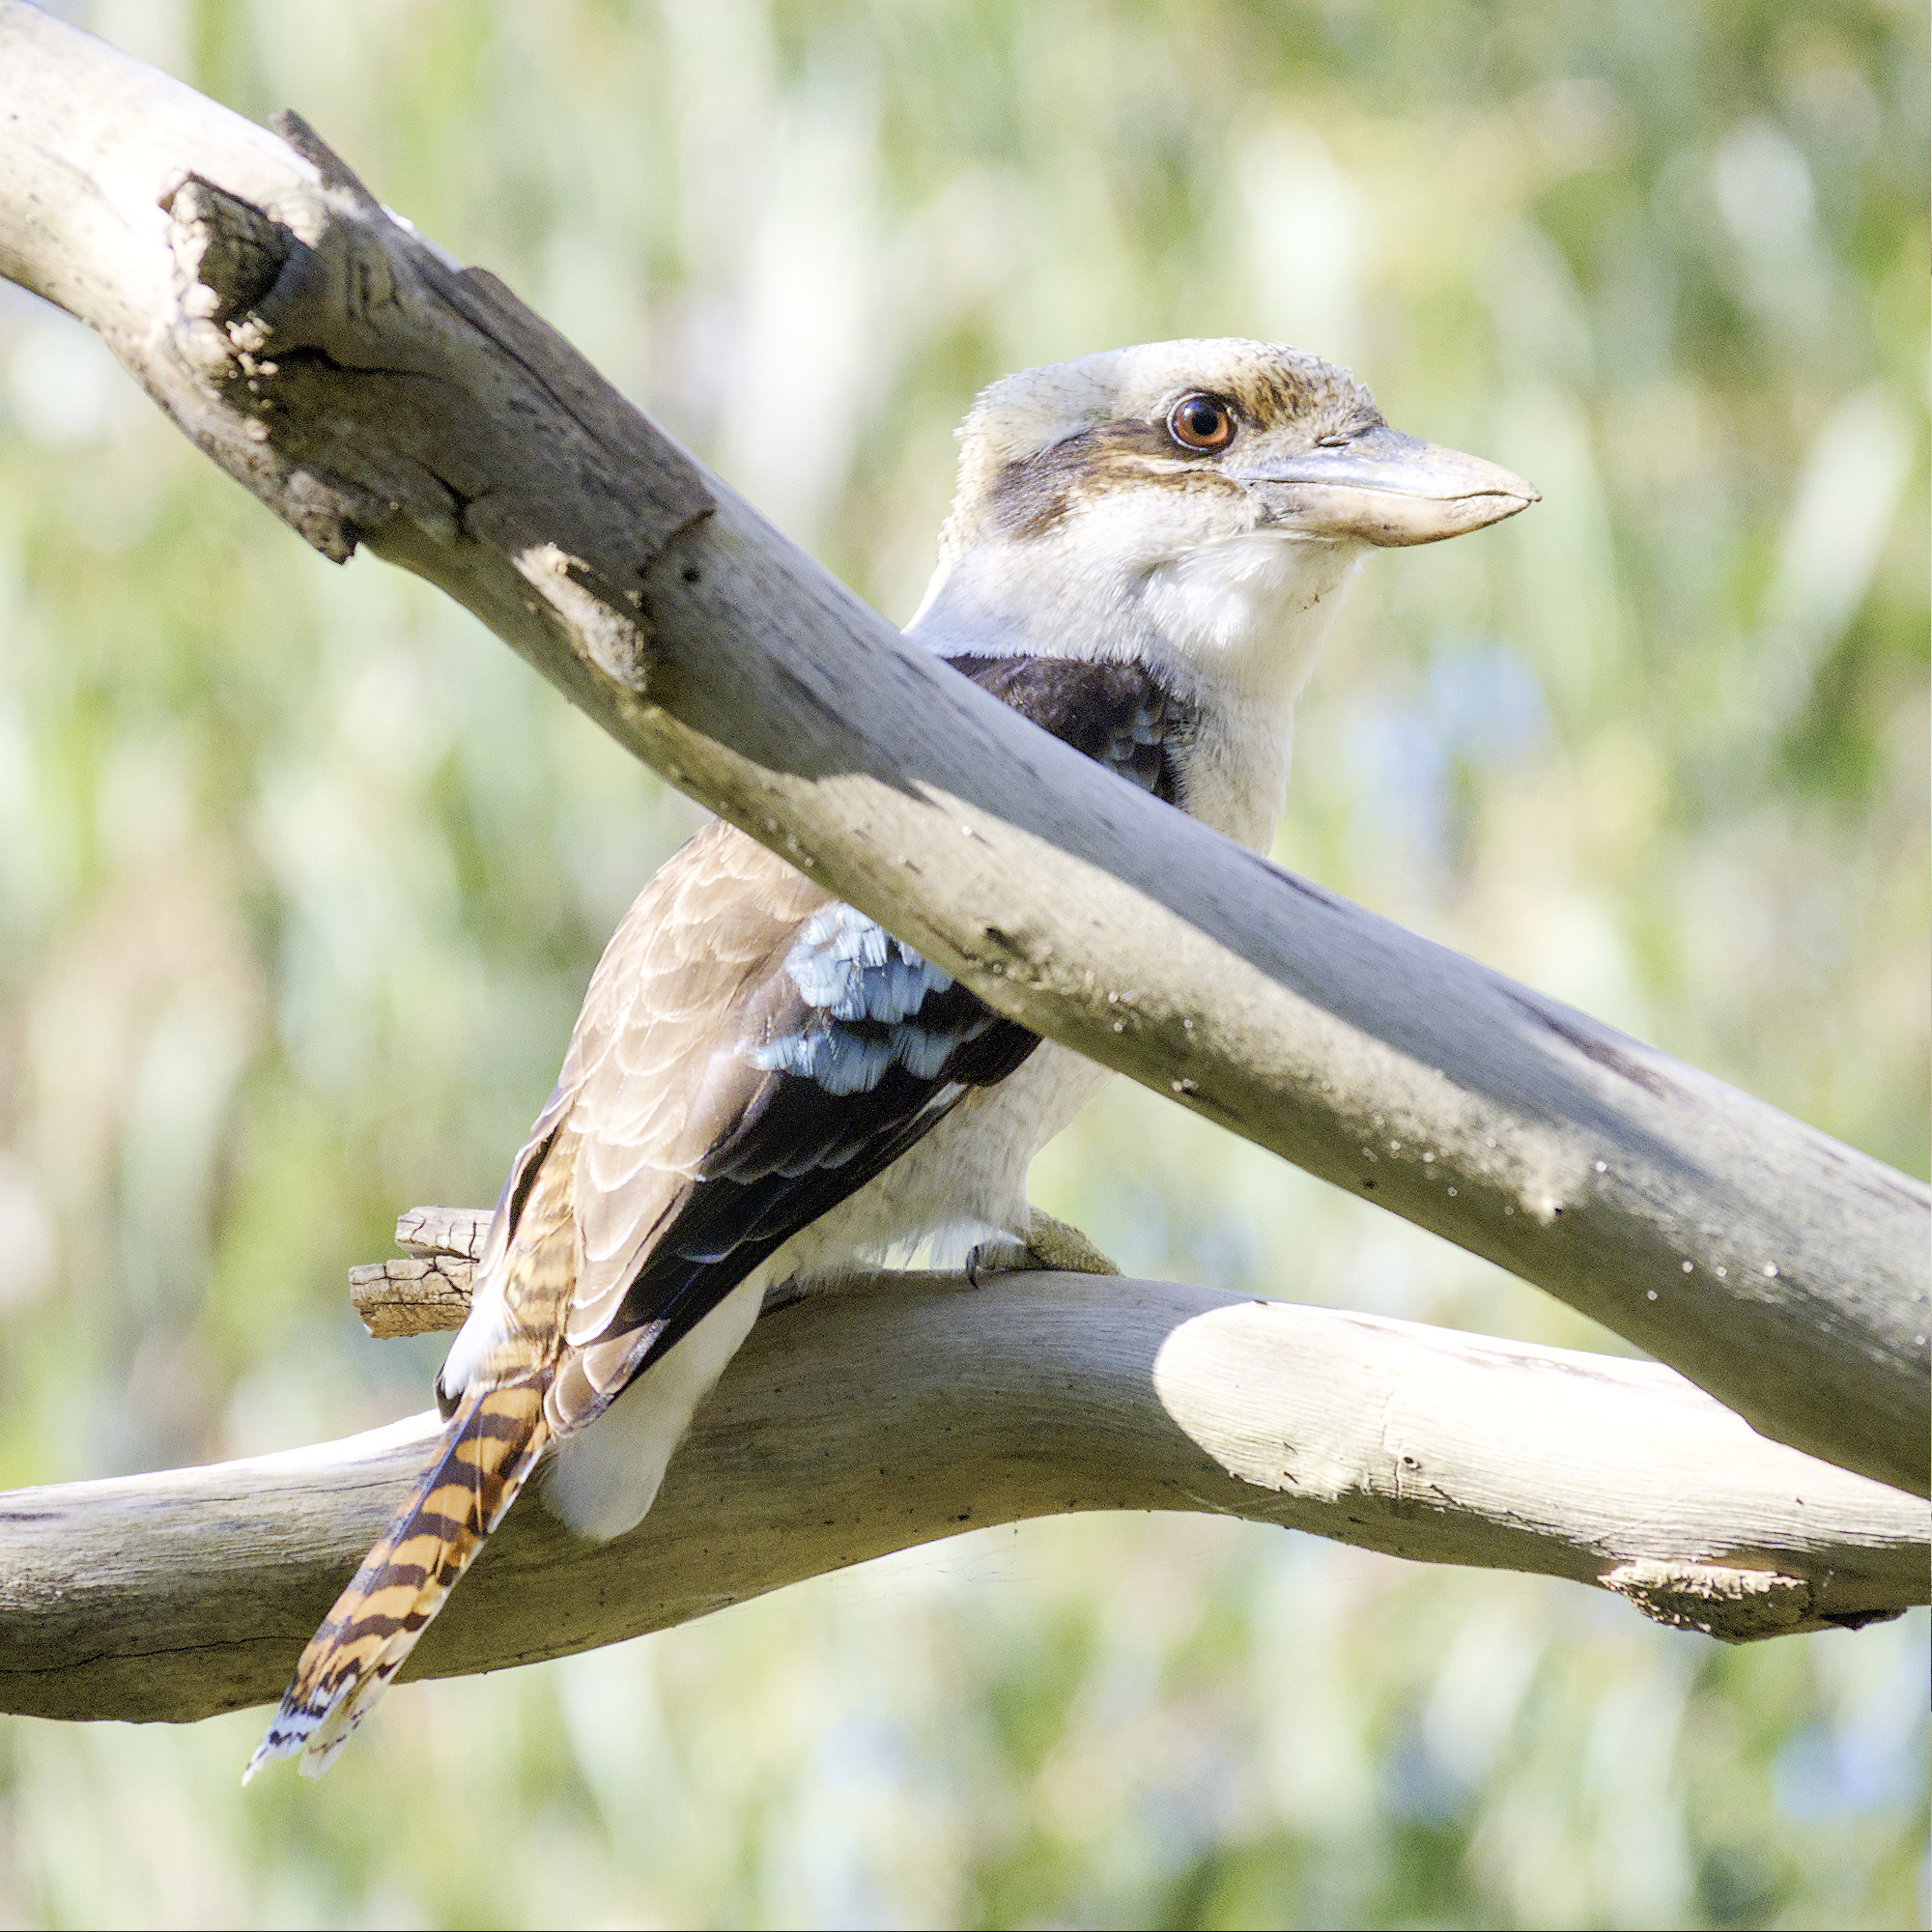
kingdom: Animalia
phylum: Chordata
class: Aves
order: Coraciiformes
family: Alcedinidae
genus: Dacelo
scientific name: Dacelo novaeguineae
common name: Laughing kookaburra
